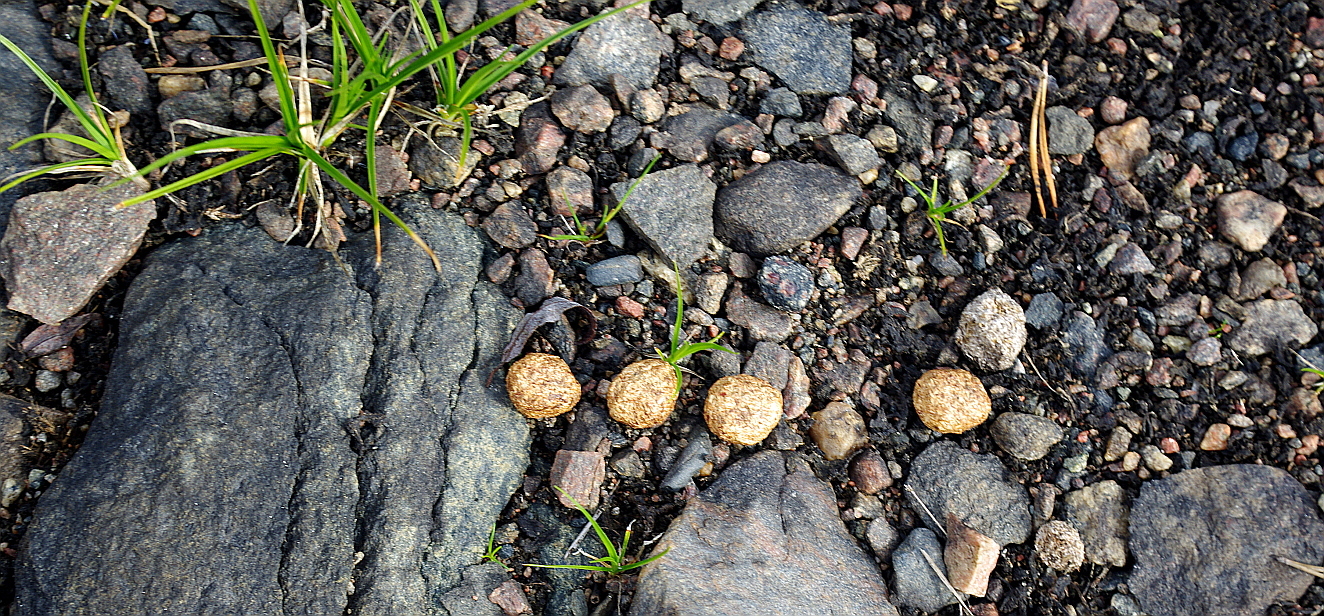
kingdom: Animalia
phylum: Chordata
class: Mammalia
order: Lagomorpha
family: Leporidae
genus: Lepus
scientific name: Lepus timidus
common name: Mountain hare
